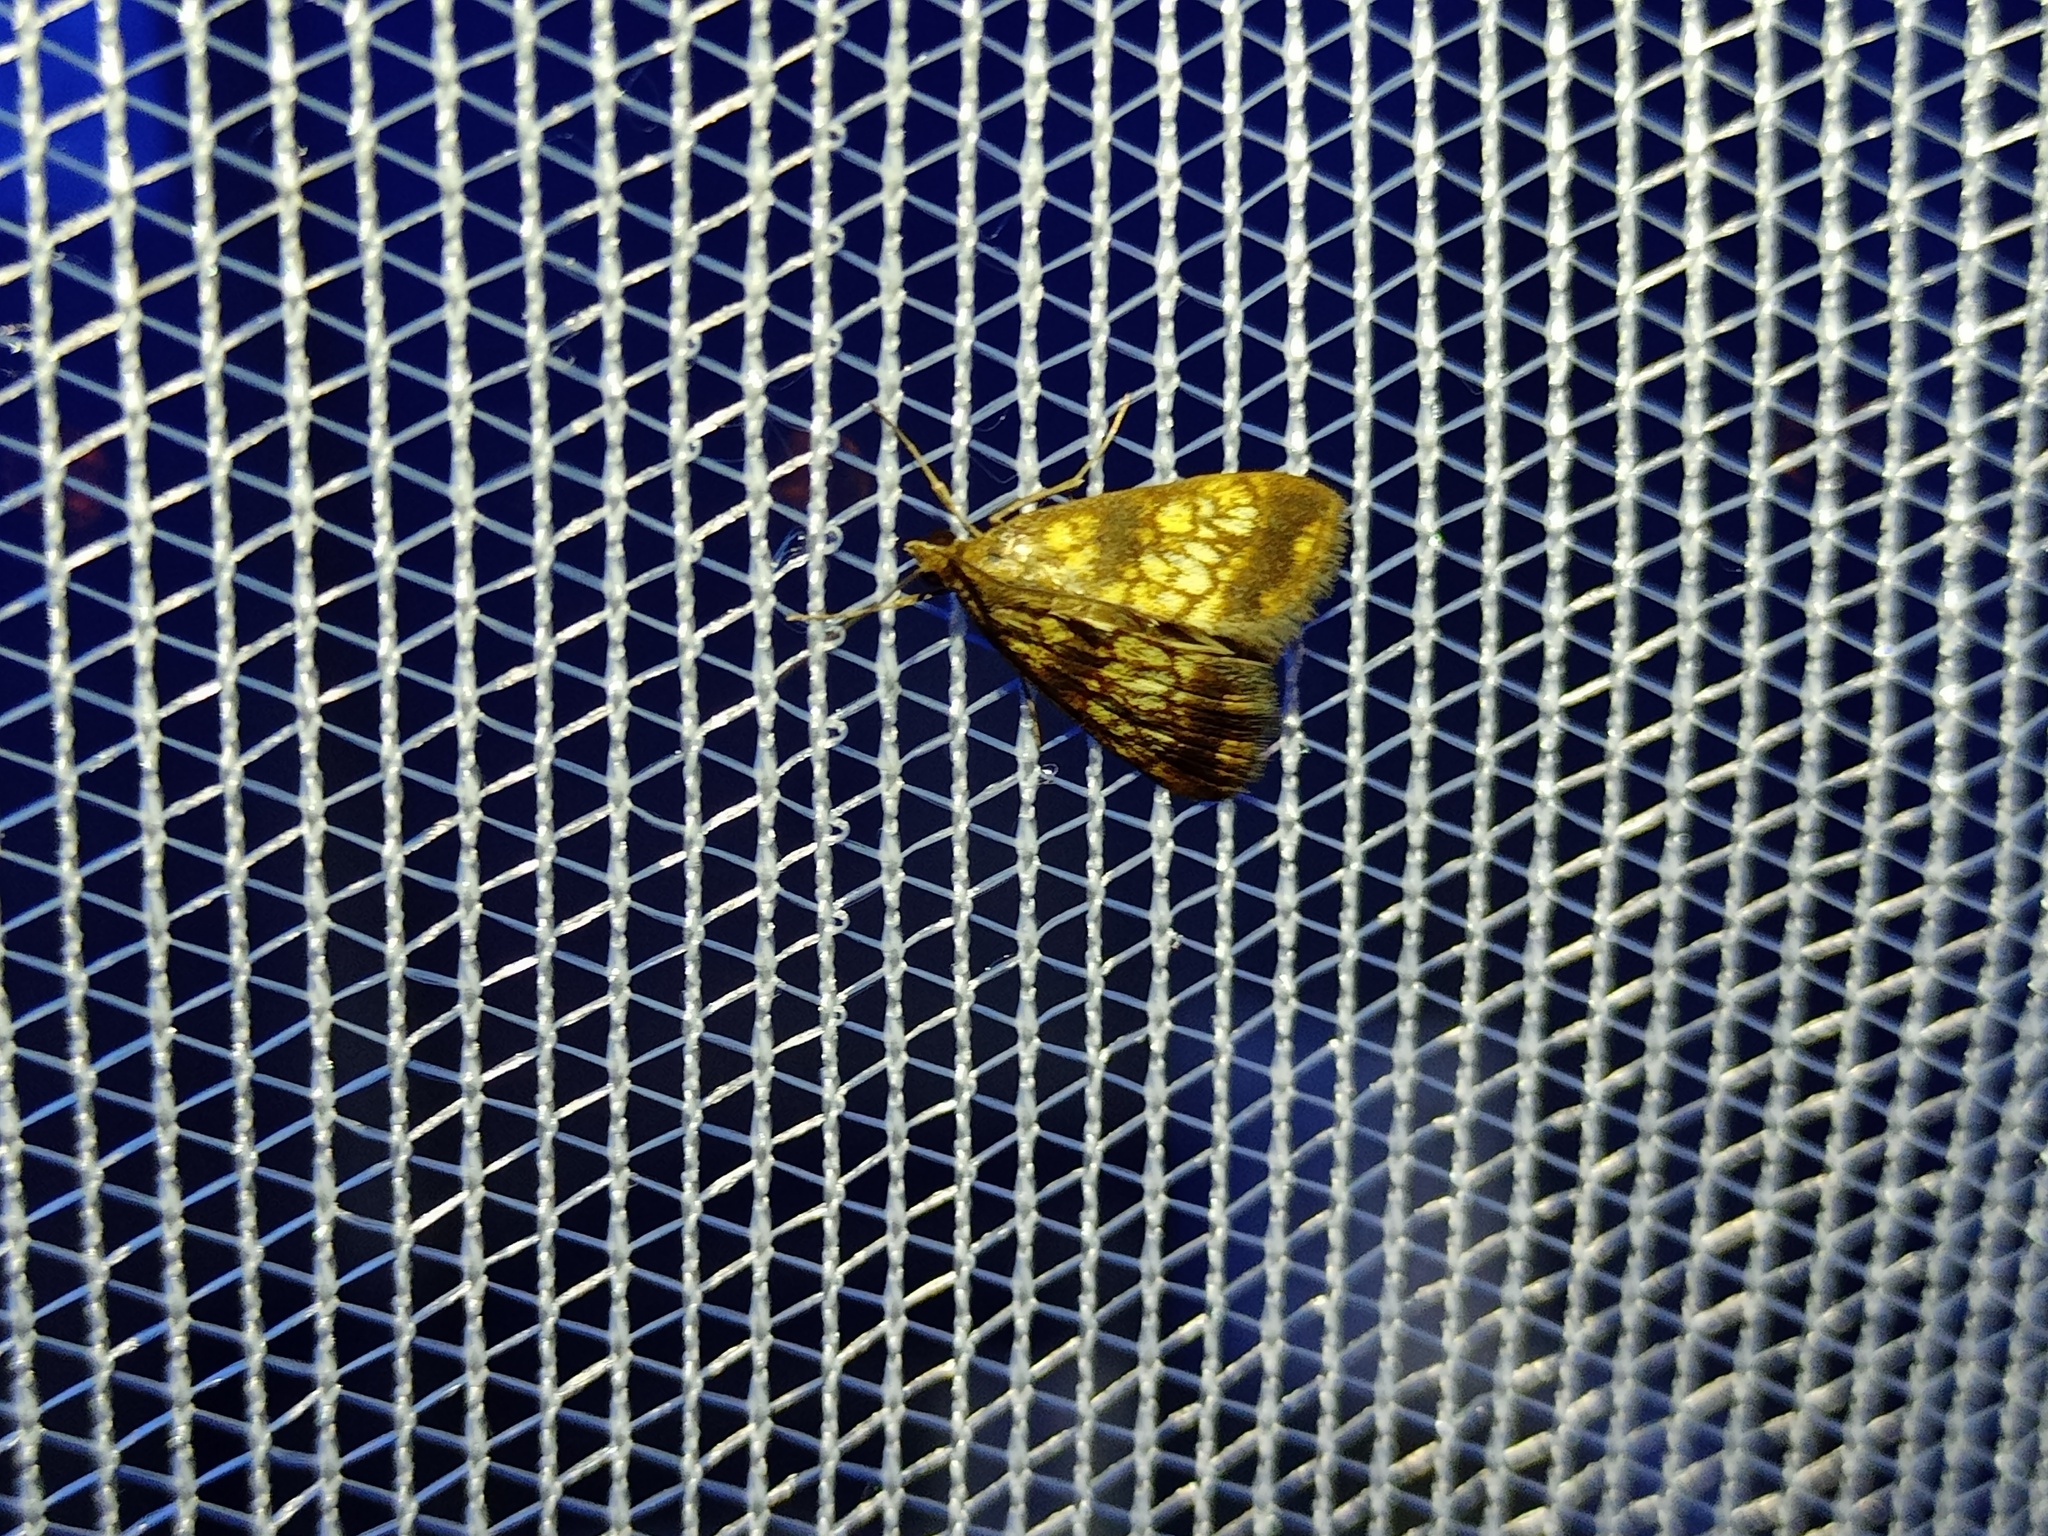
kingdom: Animalia
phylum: Arthropoda
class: Insecta
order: Lepidoptera
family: Crambidae
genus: Evergestis
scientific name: Evergestis politalis
